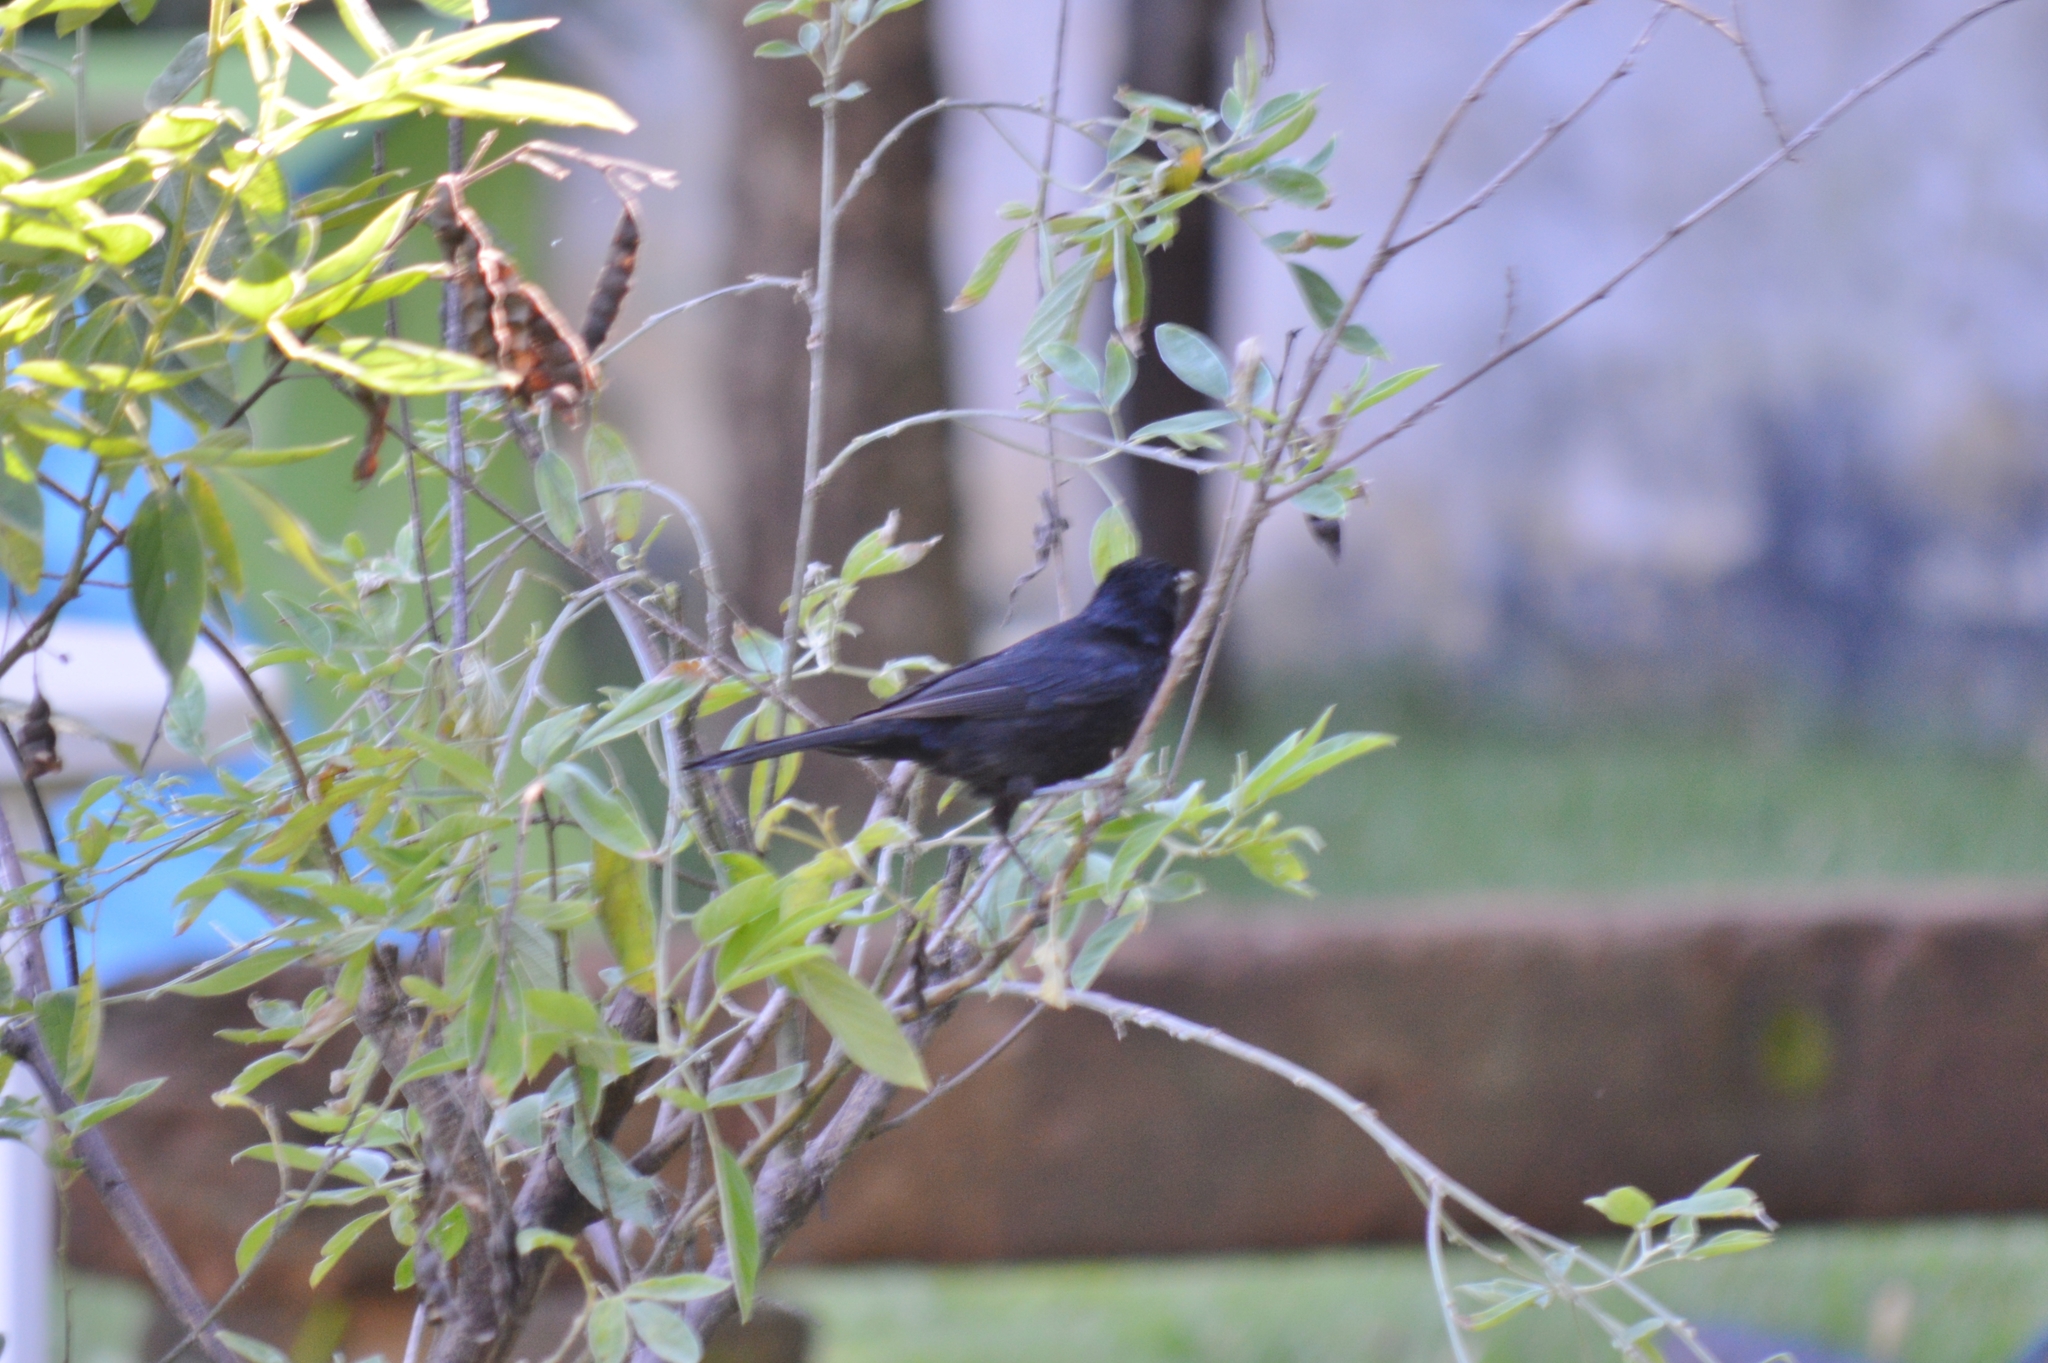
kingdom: Animalia
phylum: Chordata
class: Aves
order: Passeriformes
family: Thraupidae
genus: Tachyphonus
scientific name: Tachyphonus rufus
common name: White-lined tanager
